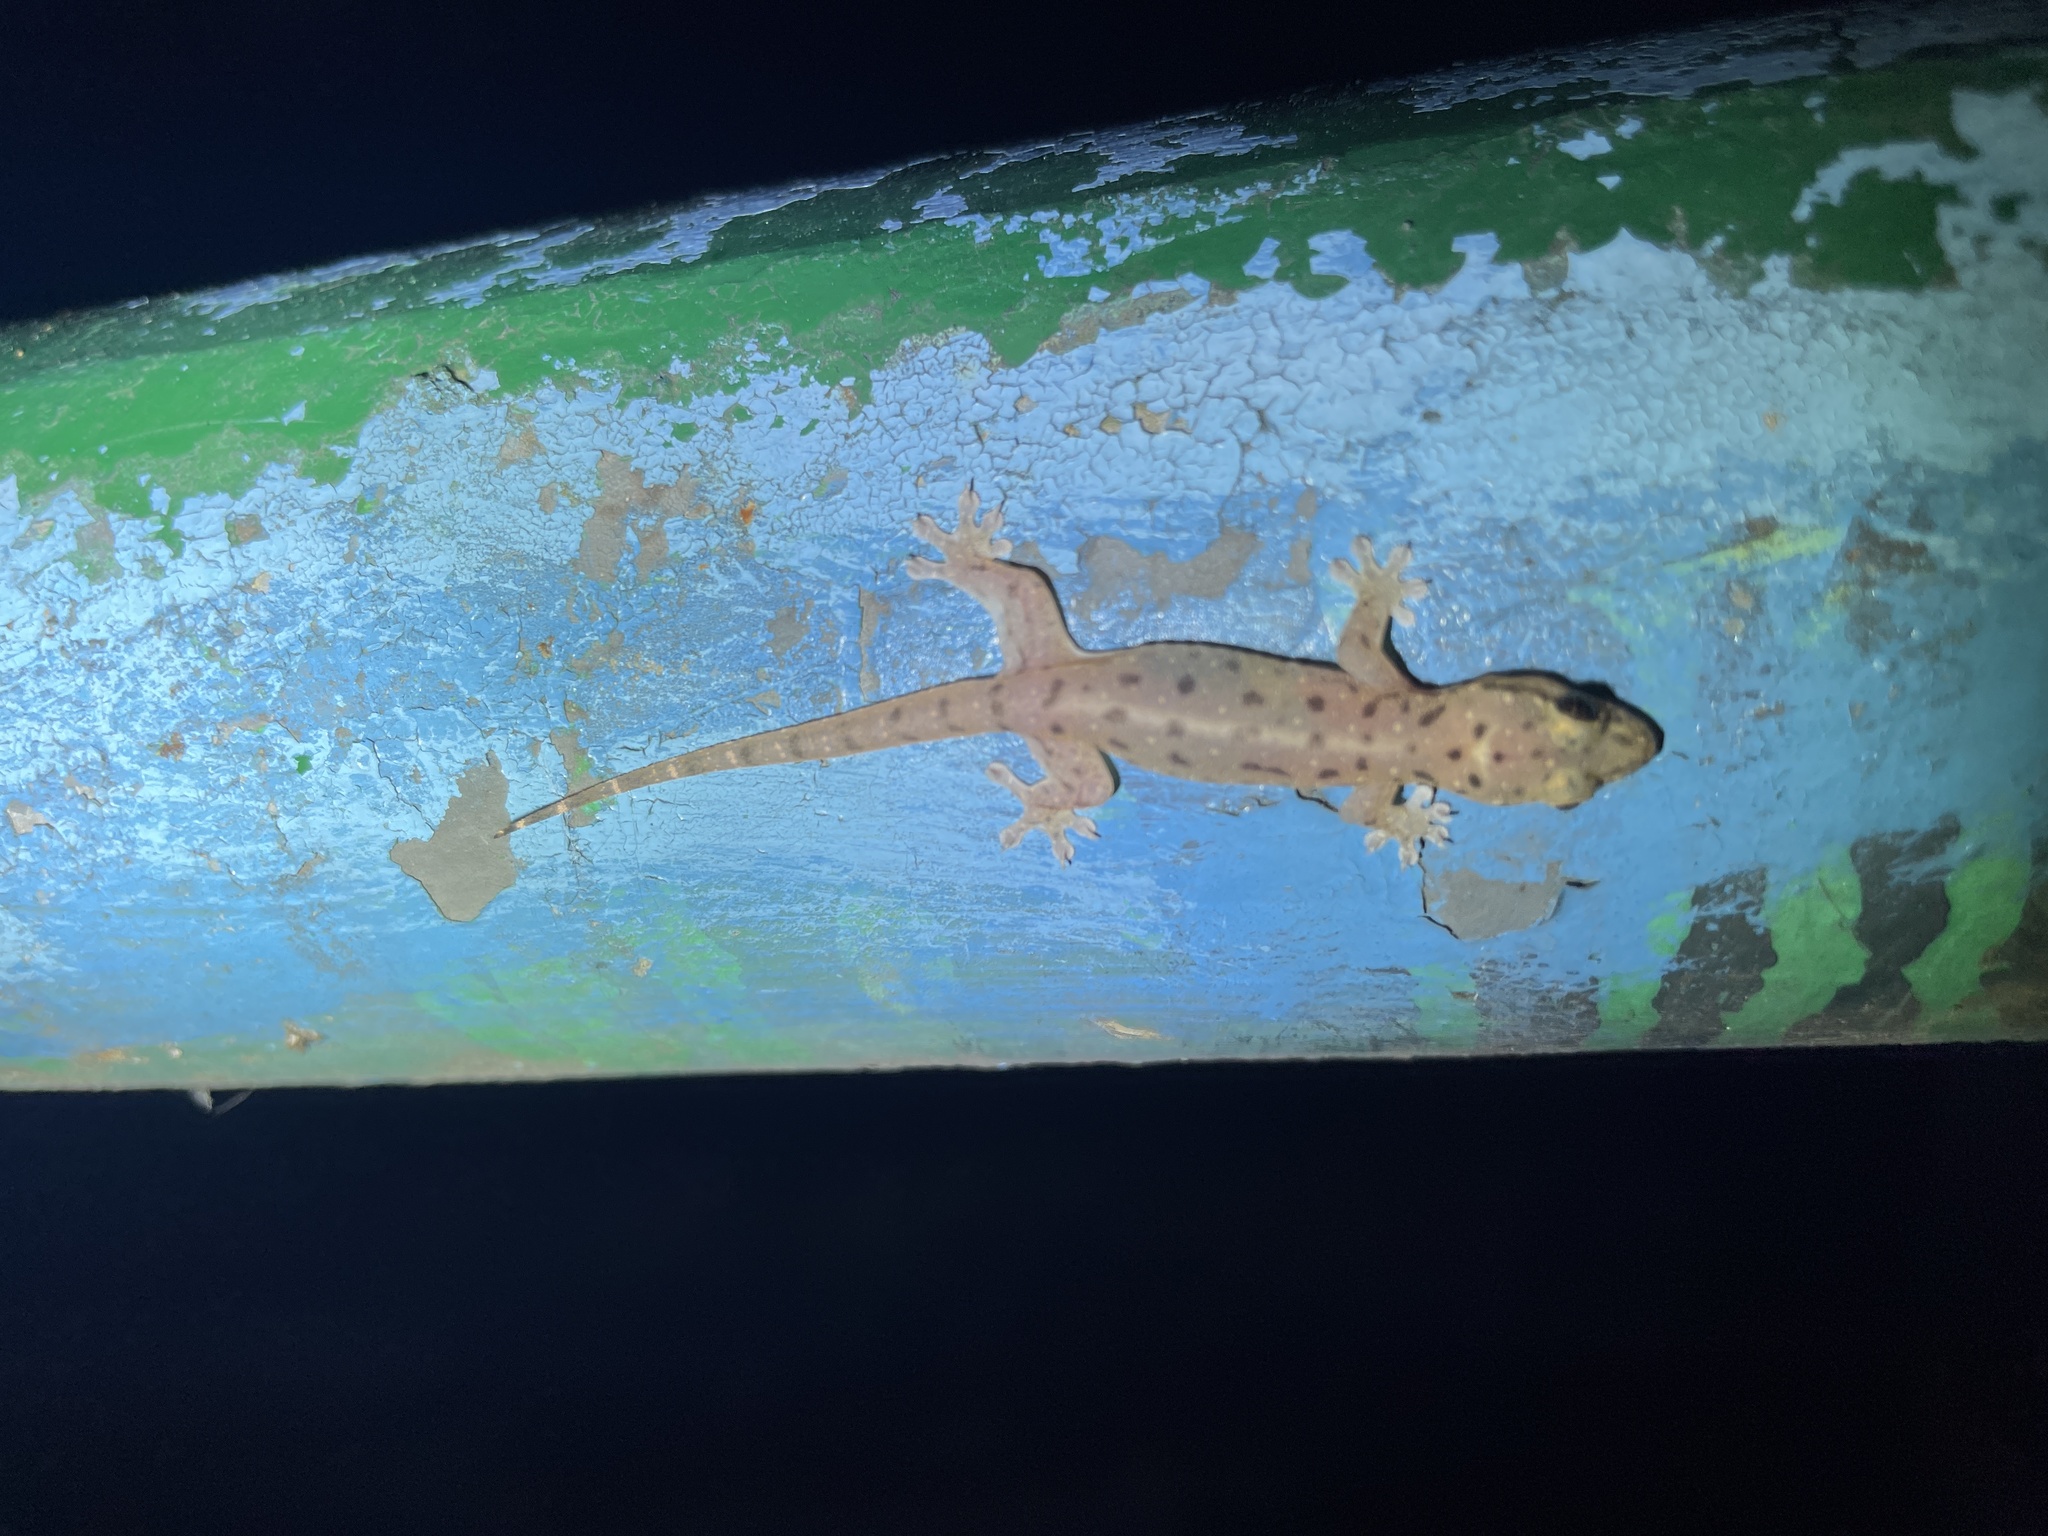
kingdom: Animalia
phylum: Chordata
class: Squamata
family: Gekkonidae
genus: Gehyra
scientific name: Gehyra mutilata
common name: Stump-toed gecko
